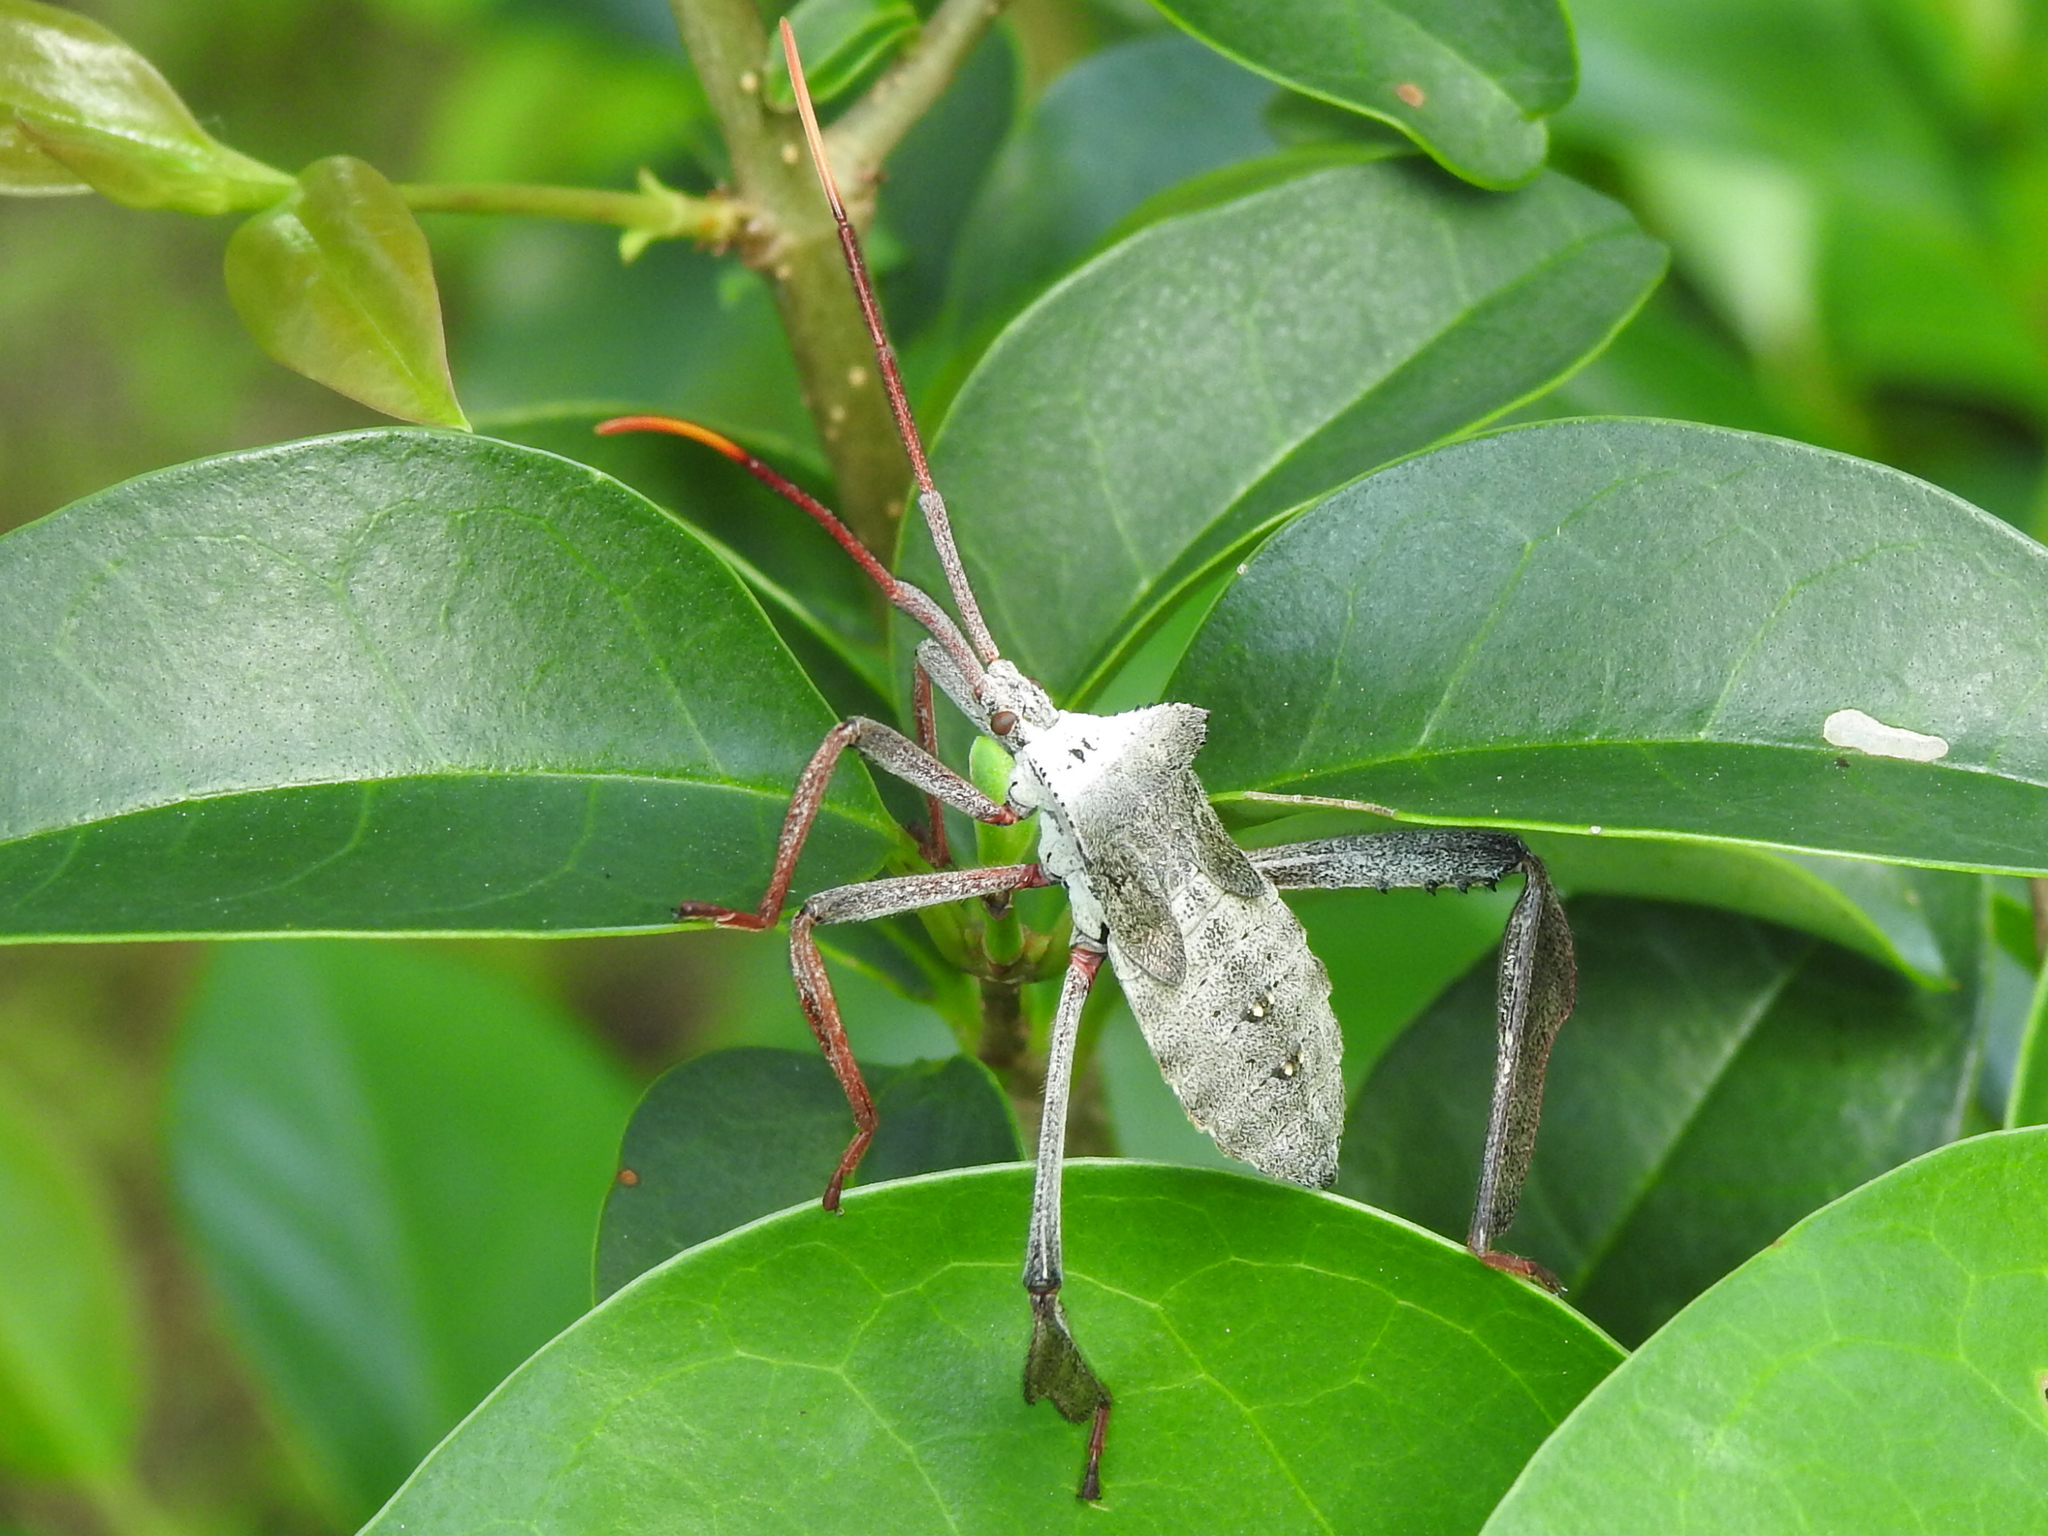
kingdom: Animalia
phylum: Arthropoda
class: Insecta
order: Hemiptera
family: Coreidae
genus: Acanthocephala
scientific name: Acanthocephala declivis
